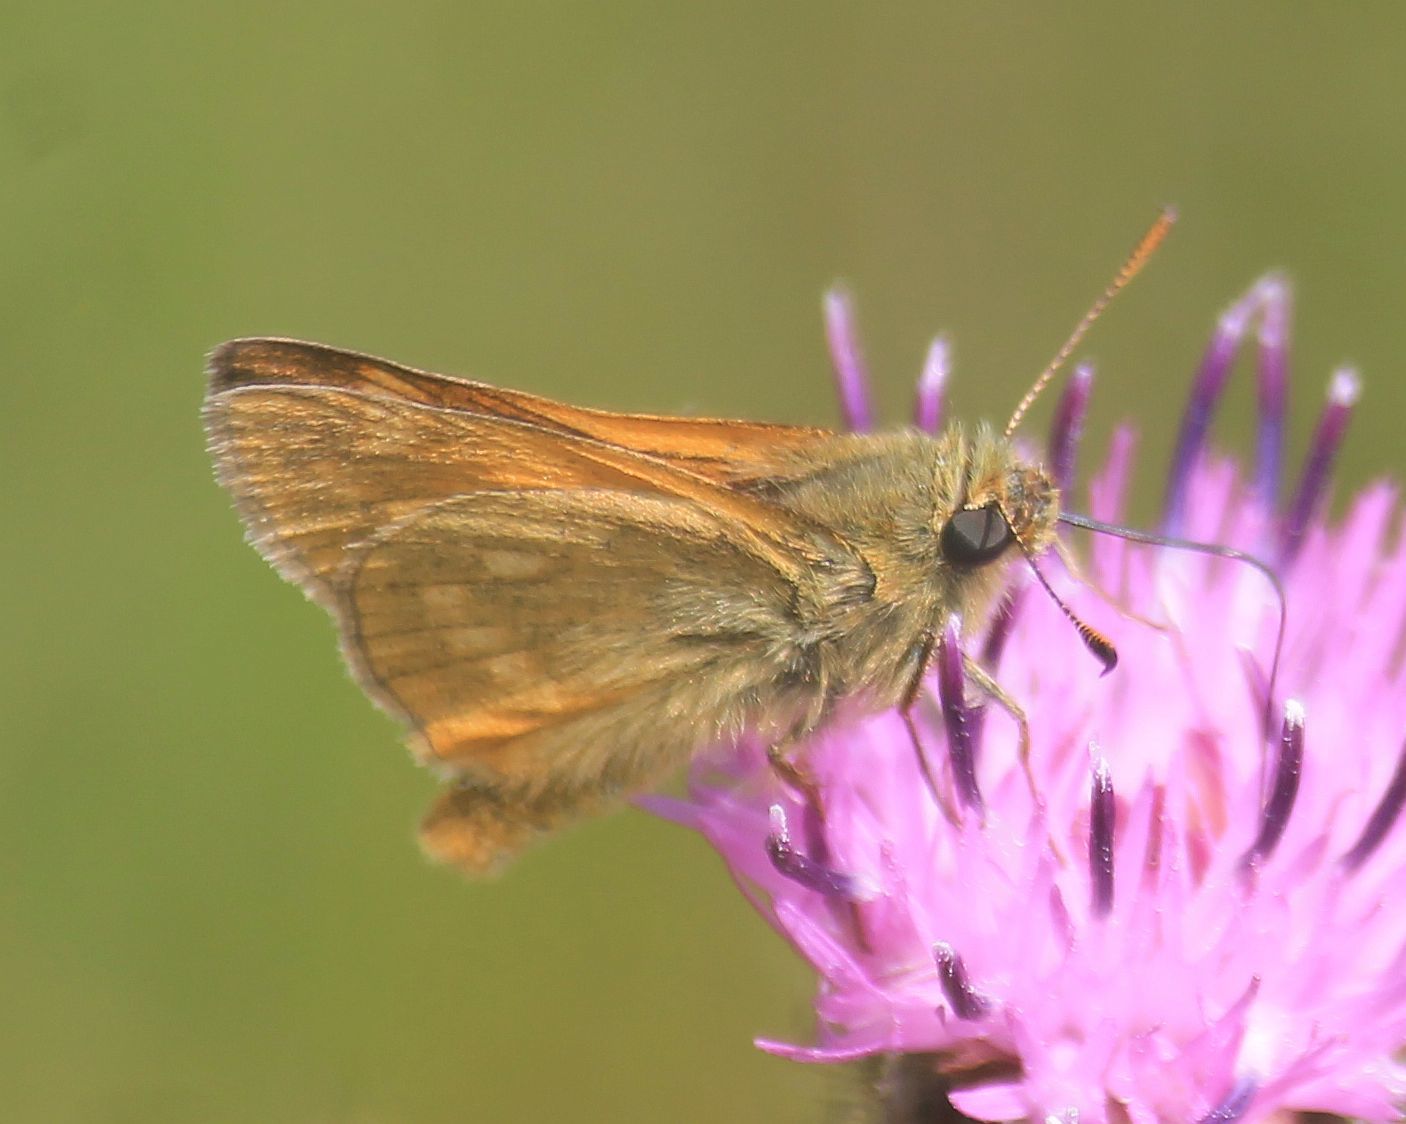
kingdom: Animalia
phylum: Arthropoda
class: Insecta
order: Lepidoptera
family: Hesperiidae
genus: Ochlodes
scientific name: Ochlodes venata
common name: Large skipper
